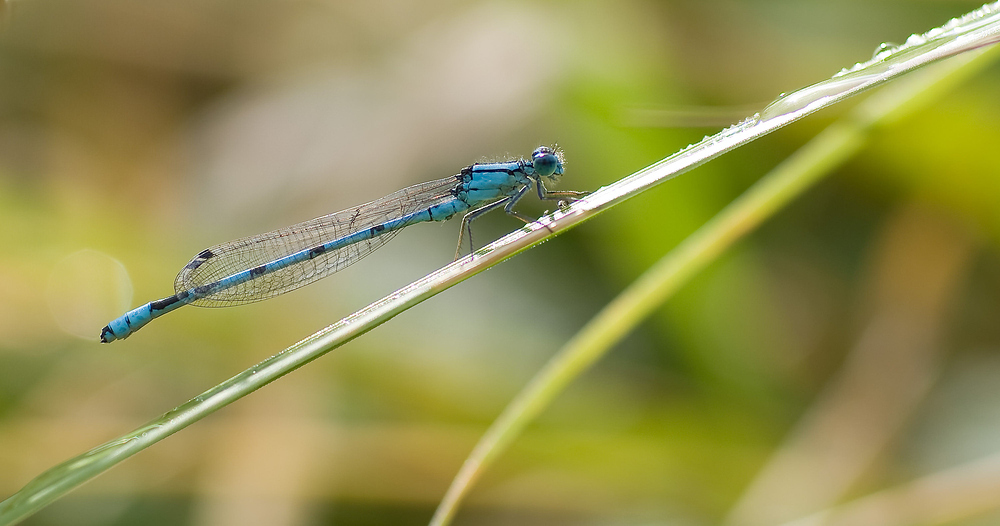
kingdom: Animalia
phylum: Arthropoda
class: Insecta
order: Odonata
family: Coenagrionidae
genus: Enallagma
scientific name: Enallagma cyathigerum
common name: Common blue damselfly
